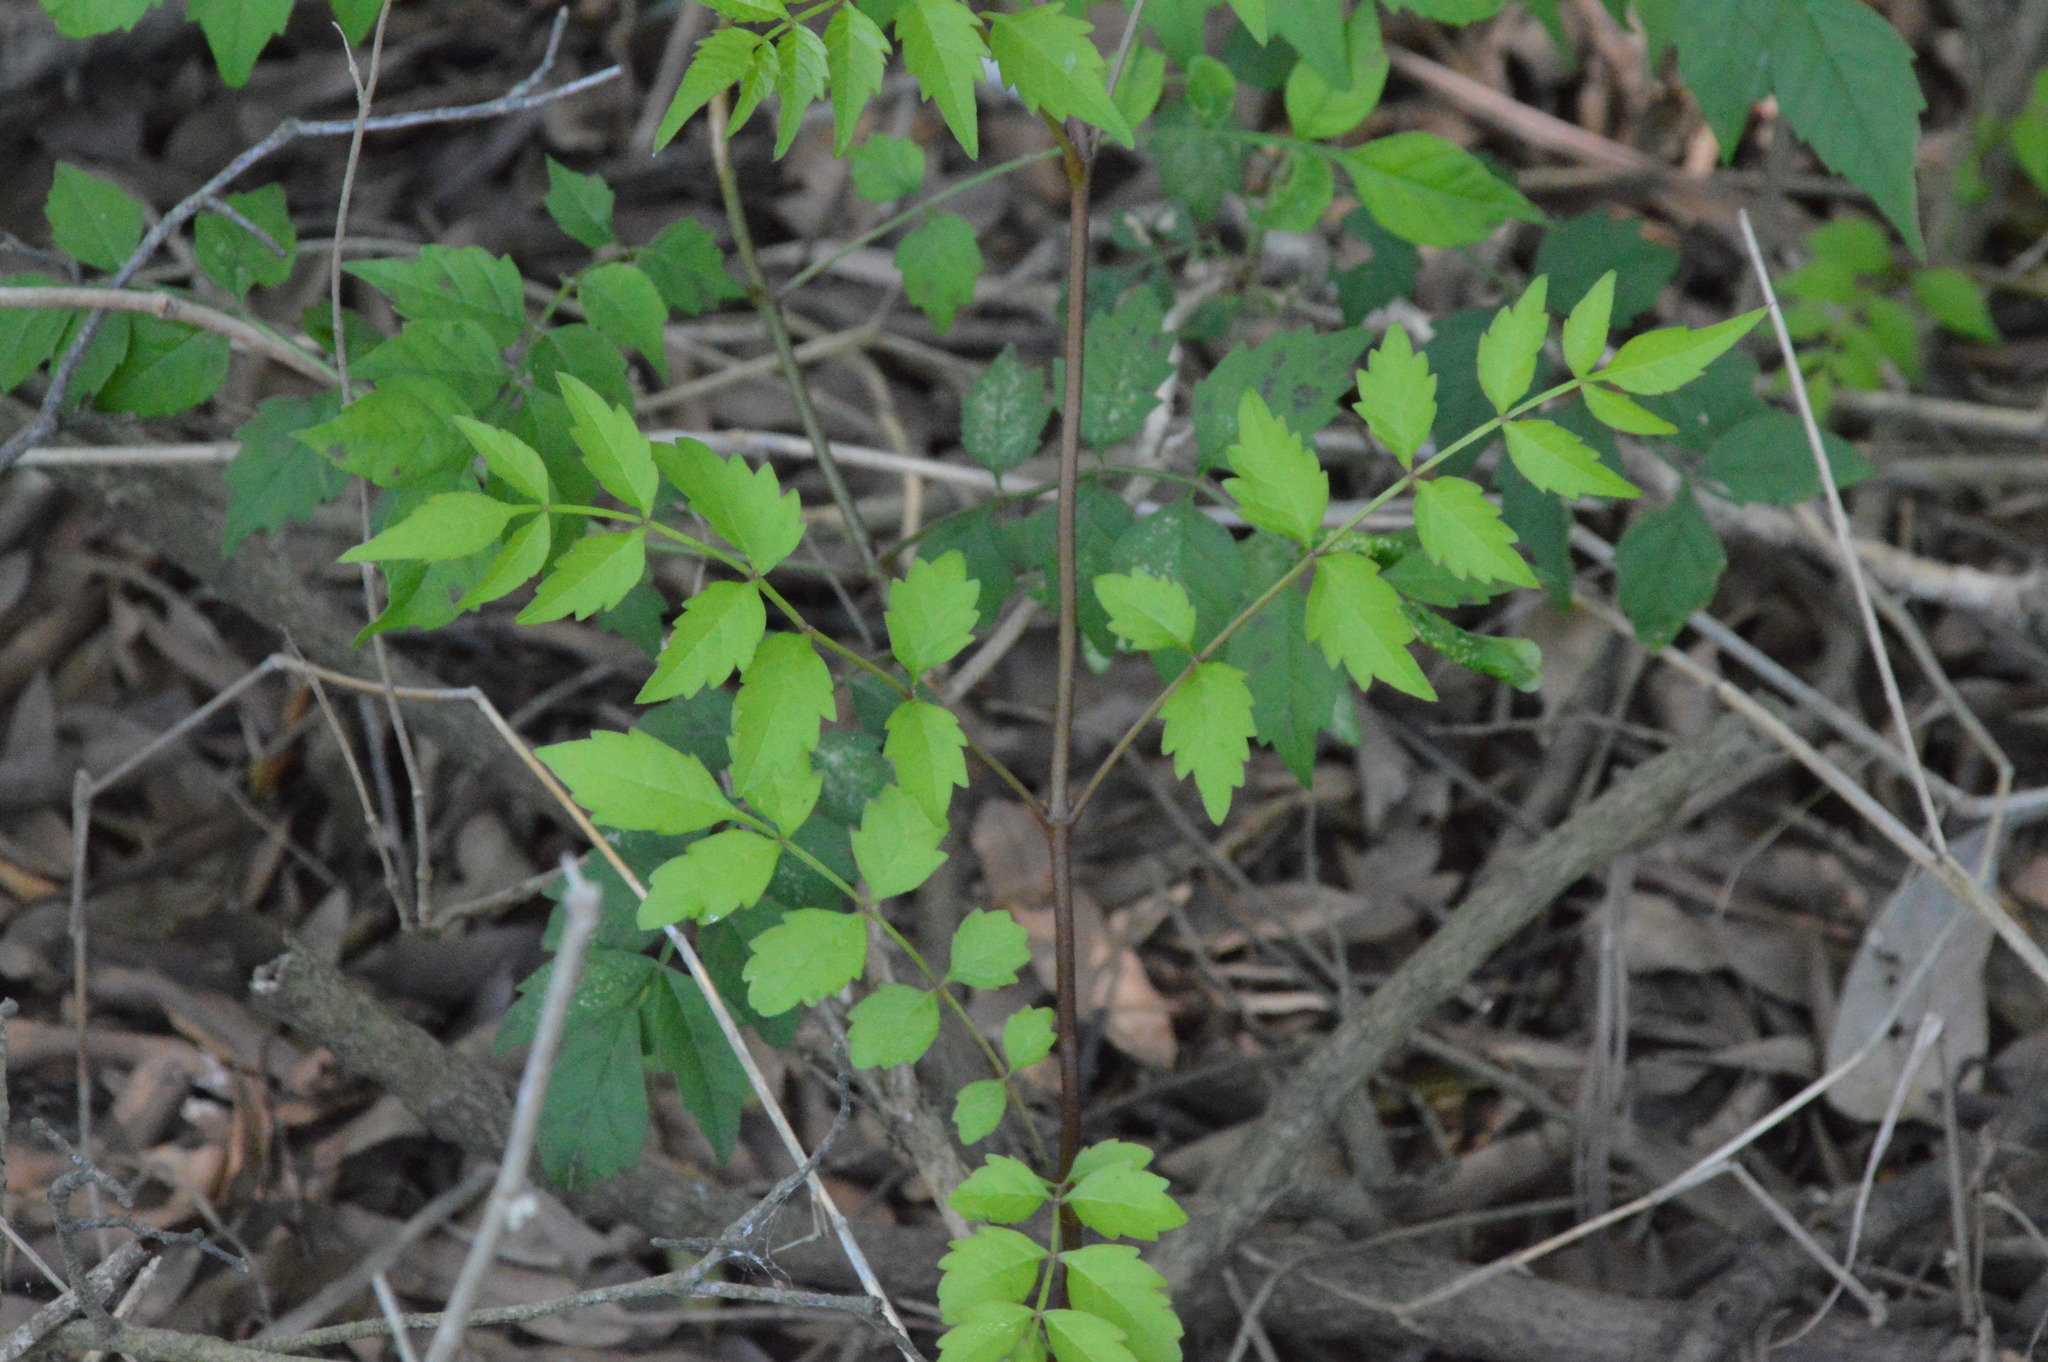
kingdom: Plantae
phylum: Tracheophyta
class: Magnoliopsida
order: Lamiales
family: Bignoniaceae
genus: Campsis
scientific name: Campsis radicans
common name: Trumpet-creeper
